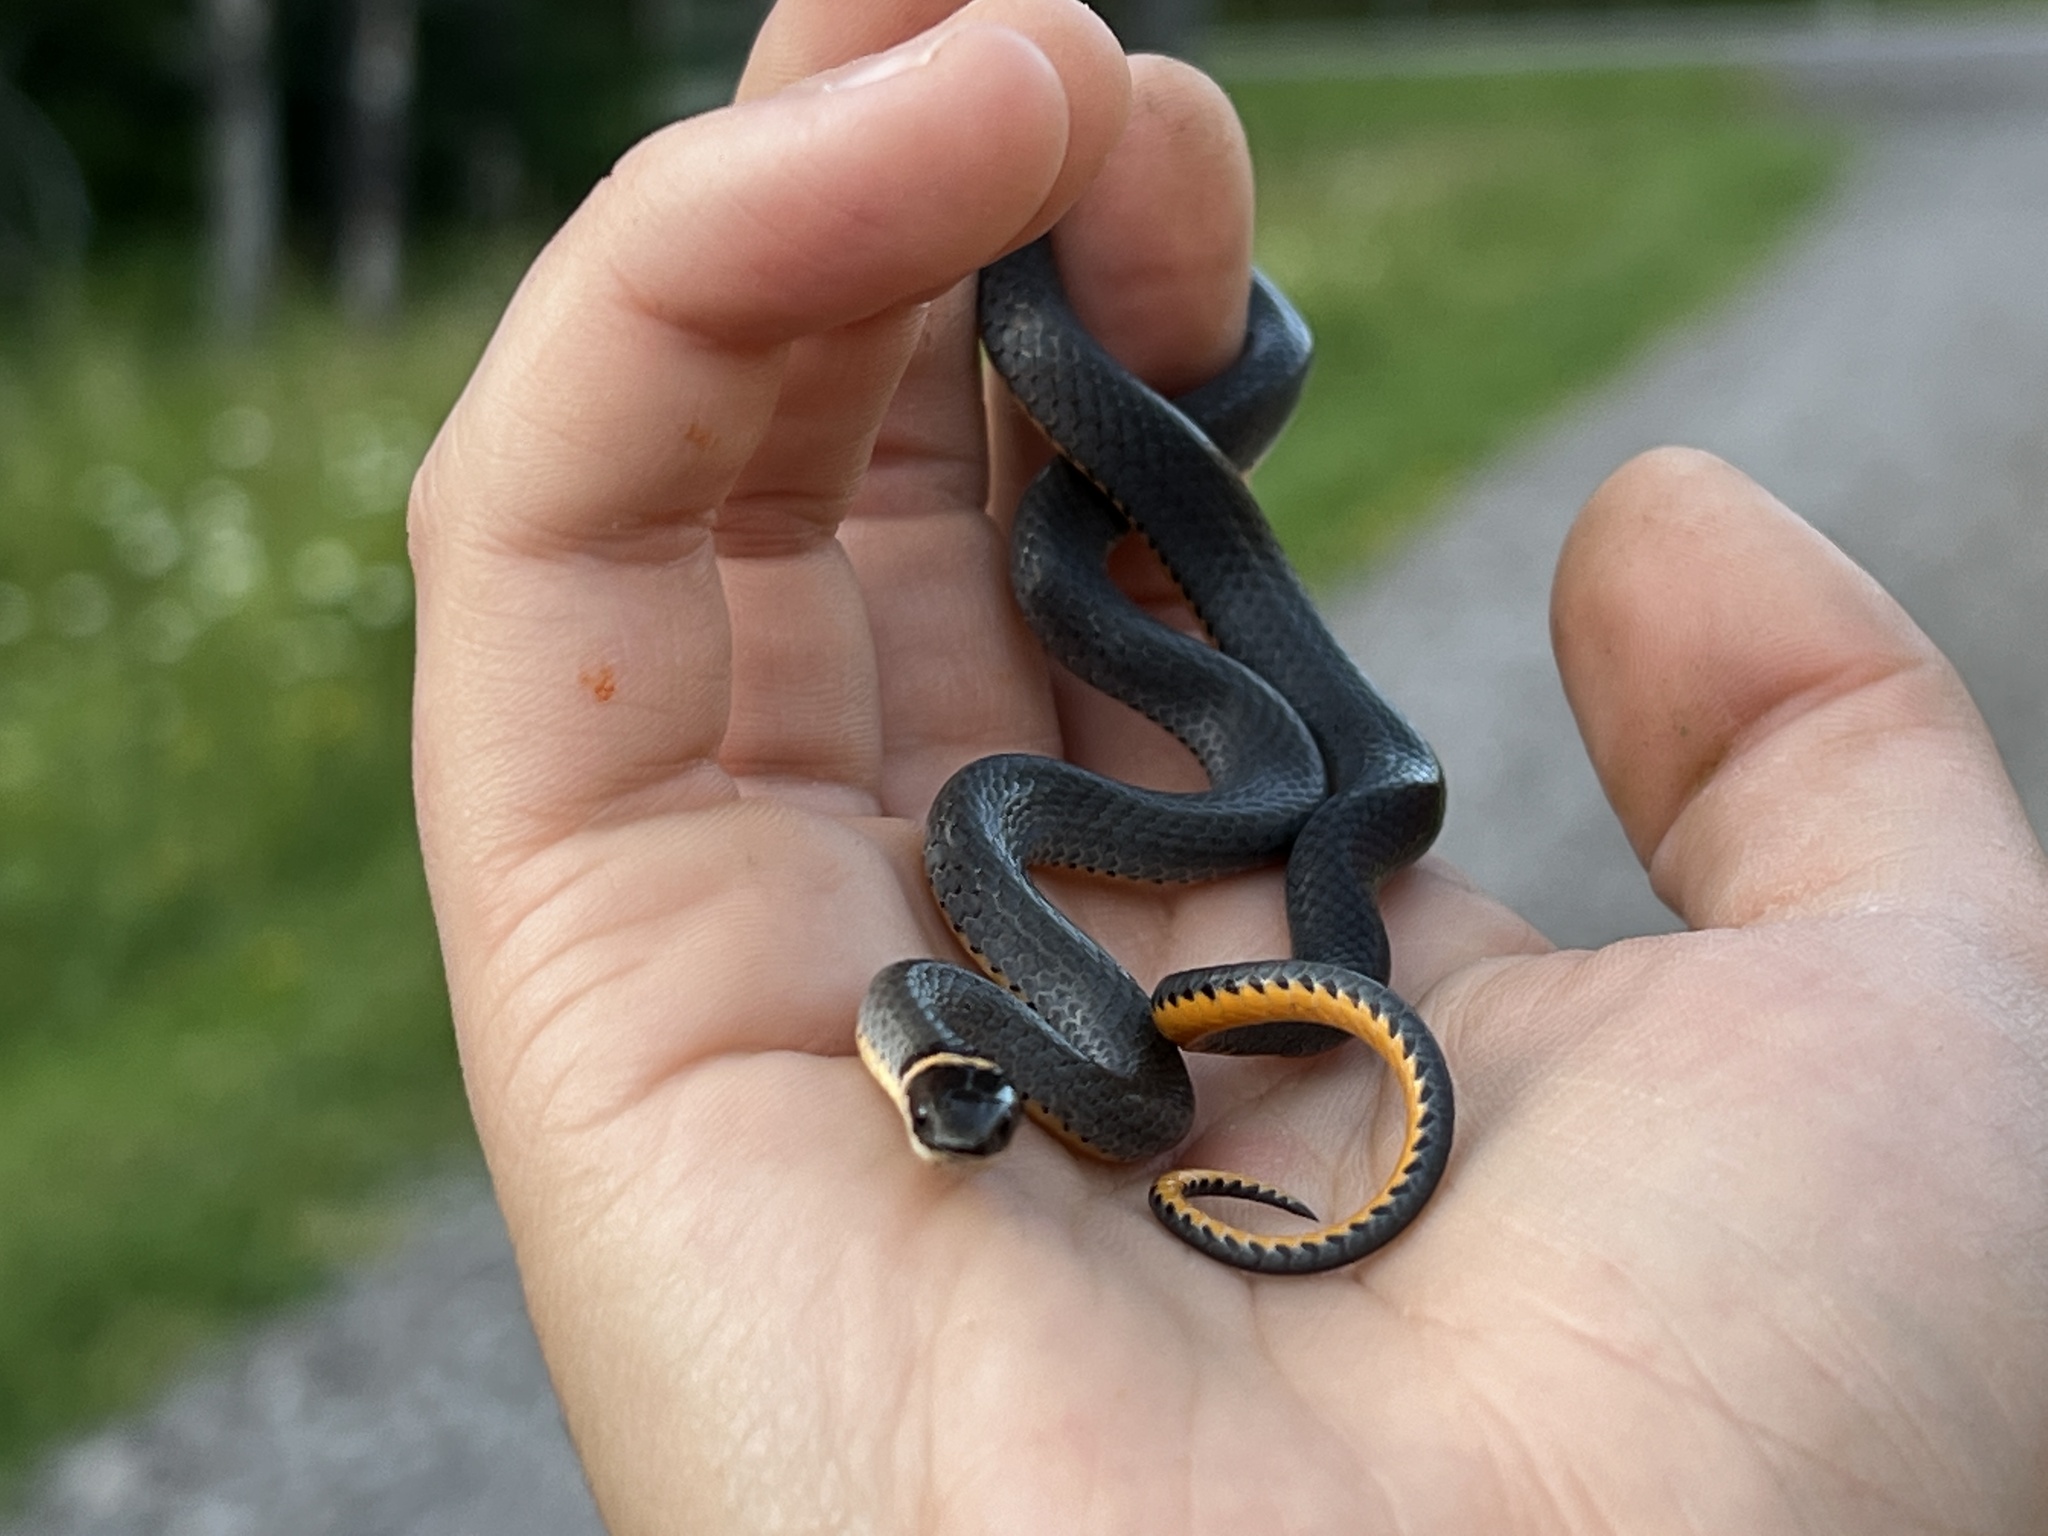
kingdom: Animalia
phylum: Chordata
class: Squamata
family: Colubridae
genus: Diadophis
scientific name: Diadophis punctatus
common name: Ringneck snake
